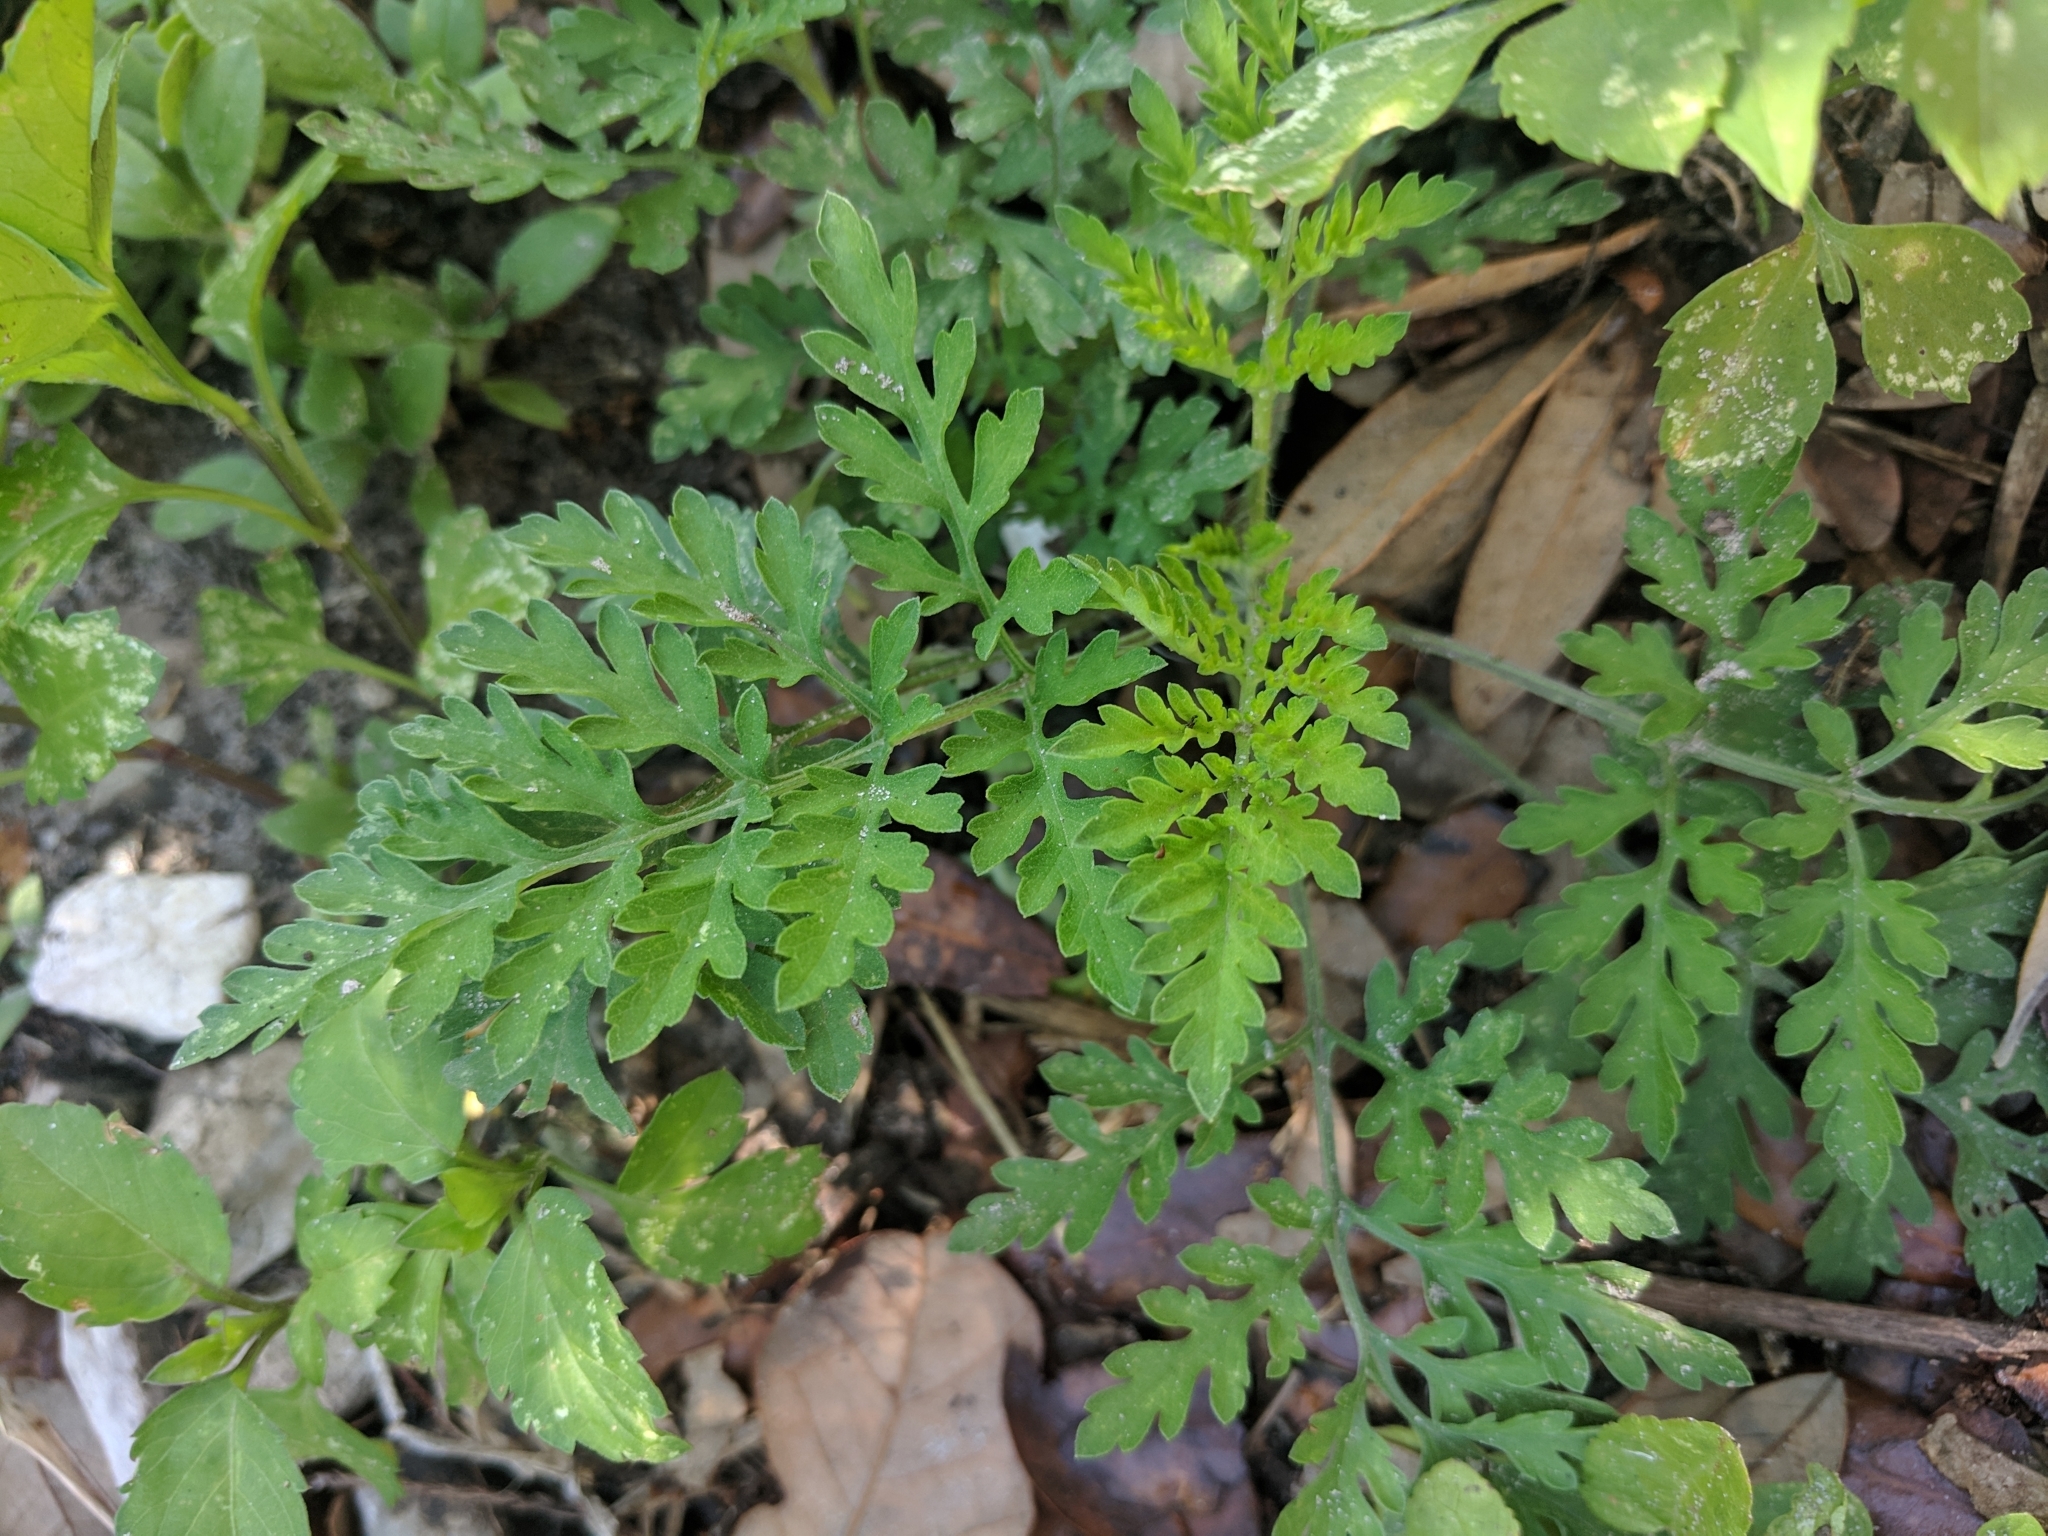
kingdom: Plantae
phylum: Tracheophyta
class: Magnoliopsida
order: Asterales
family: Asteraceae
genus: Ambrosia
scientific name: Ambrosia artemisiifolia
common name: Annual ragweed
